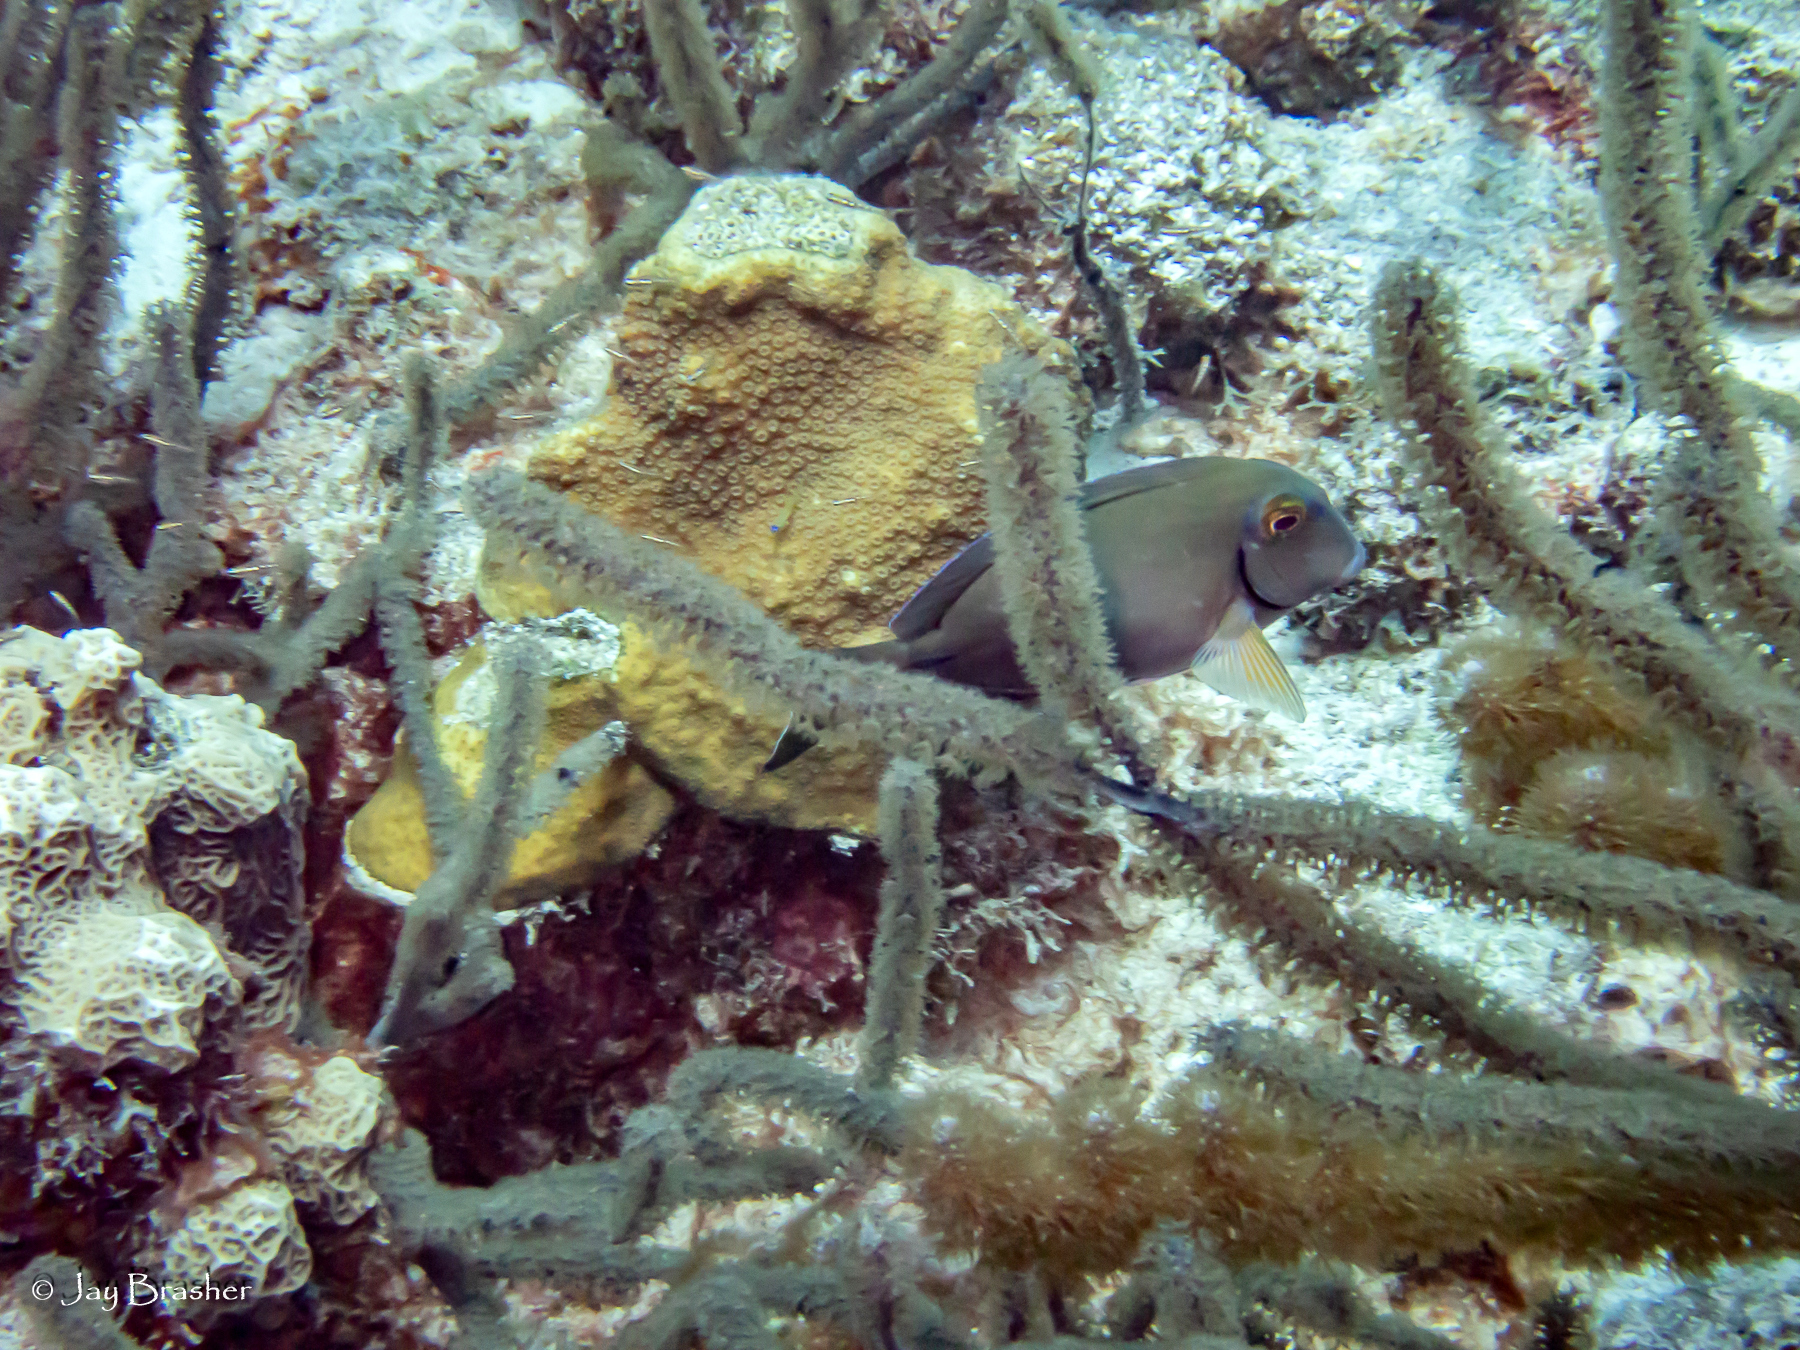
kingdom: Animalia
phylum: Chordata
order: Perciformes
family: Acanthuridae
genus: Acanthurus
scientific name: Acanthurus bahianus
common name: Ocean surgeon
